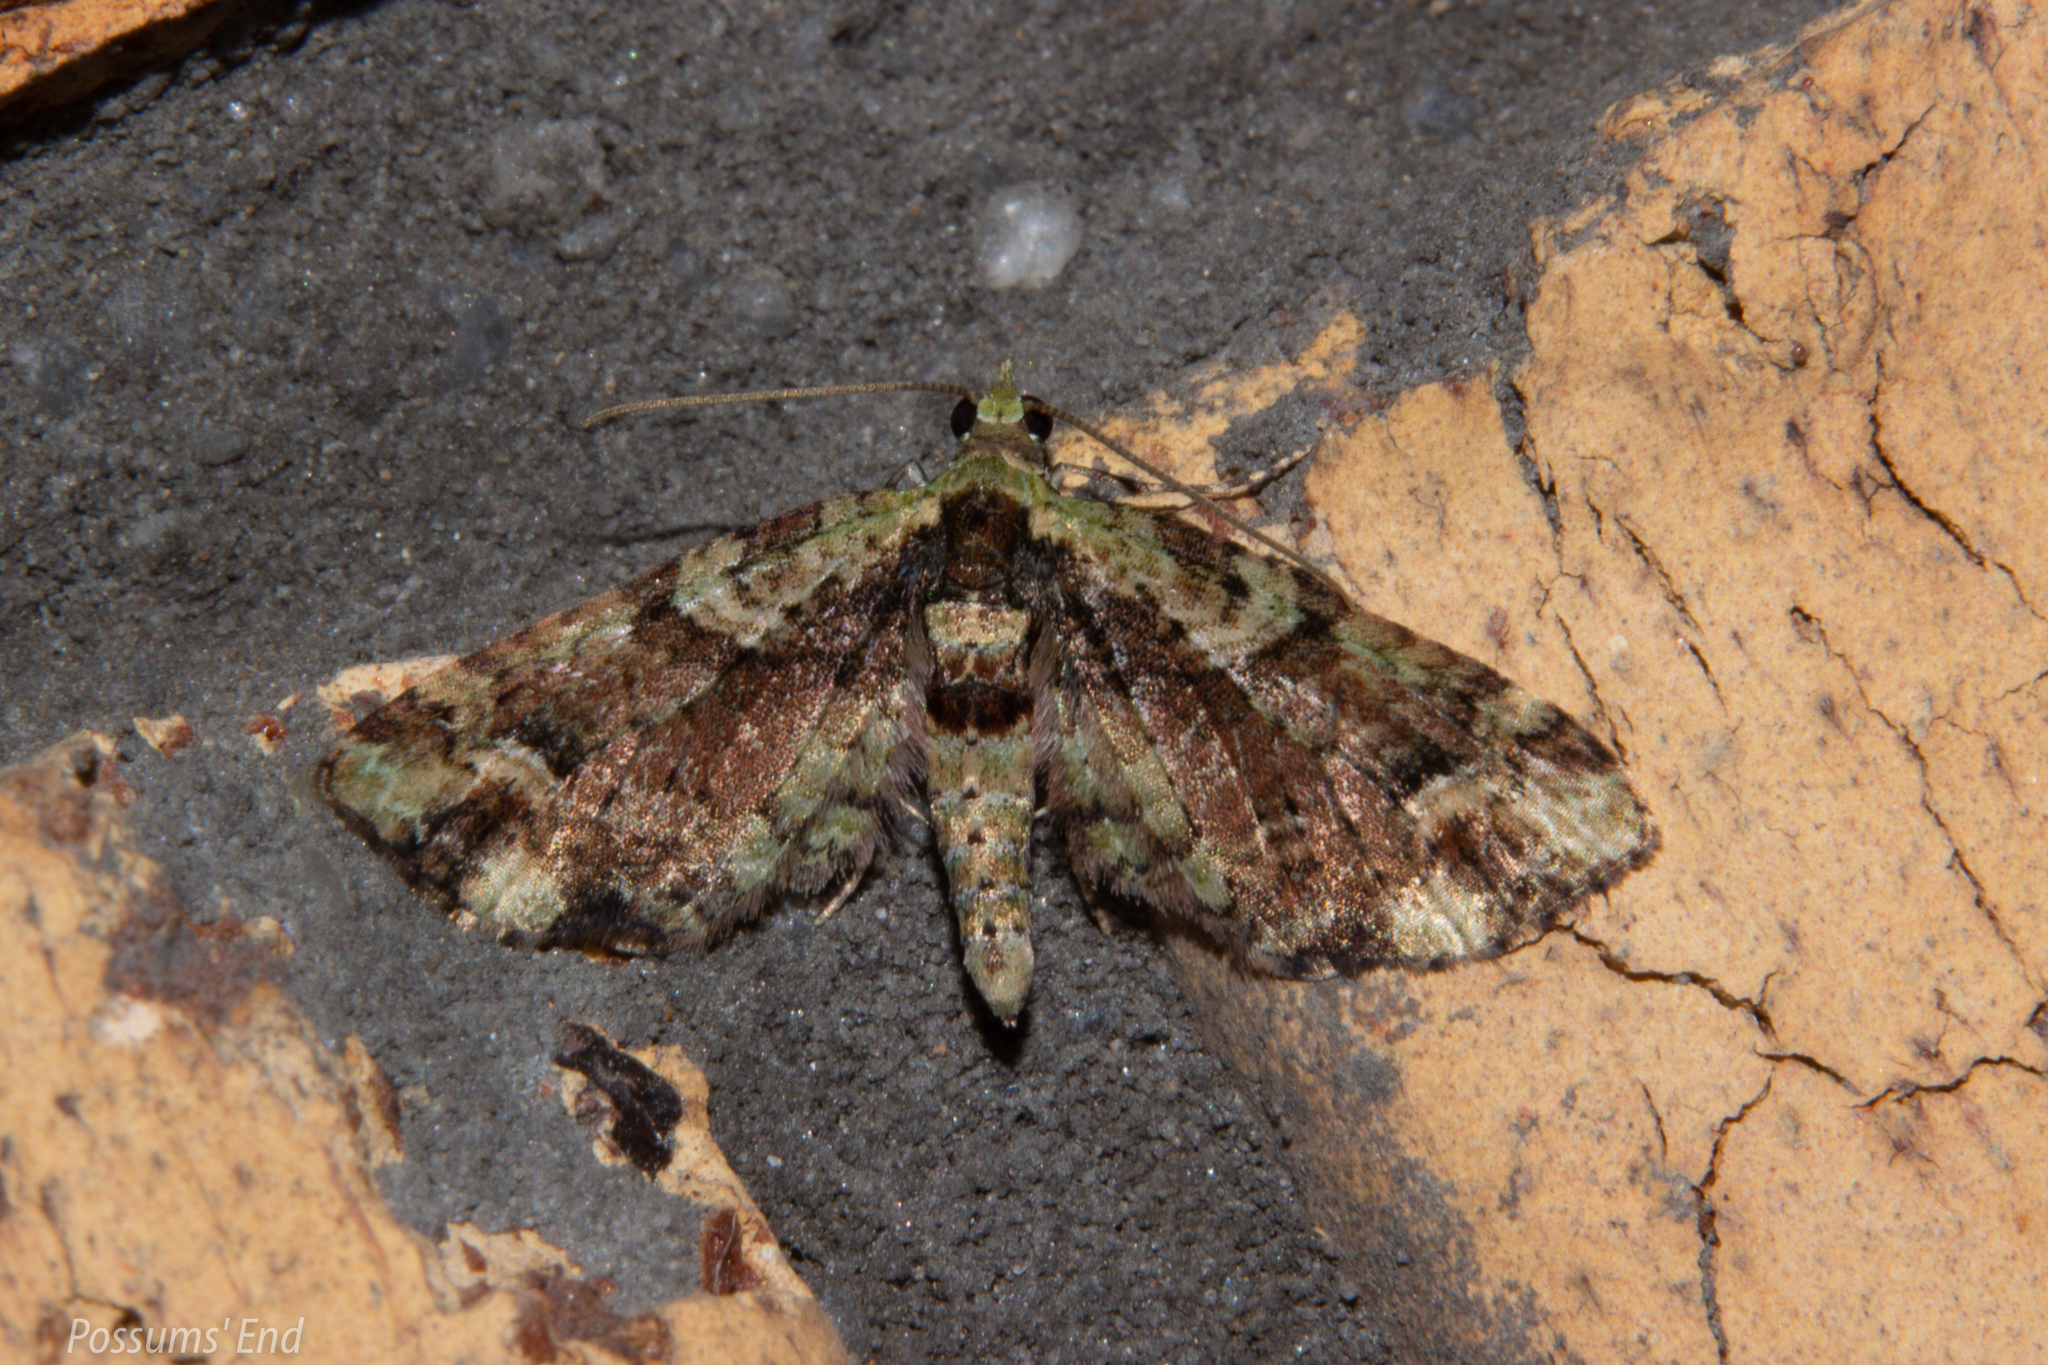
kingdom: Animalia
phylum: Arthropoda
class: Insecta
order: Lepidoptera
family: Geometridae
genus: Idaea
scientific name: Idaea mutanda
